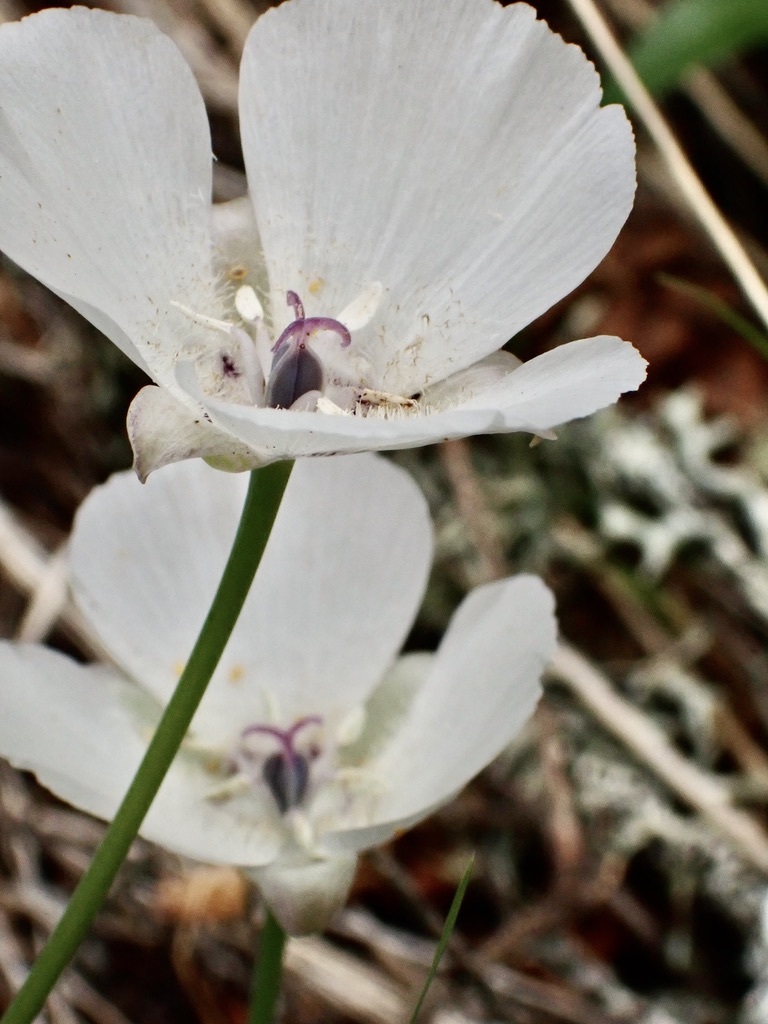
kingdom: Plantae
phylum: Tracheophyta
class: Liliopsida
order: Liliales
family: Liliaceae
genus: Calochortus
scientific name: Calochortus umbellatus
